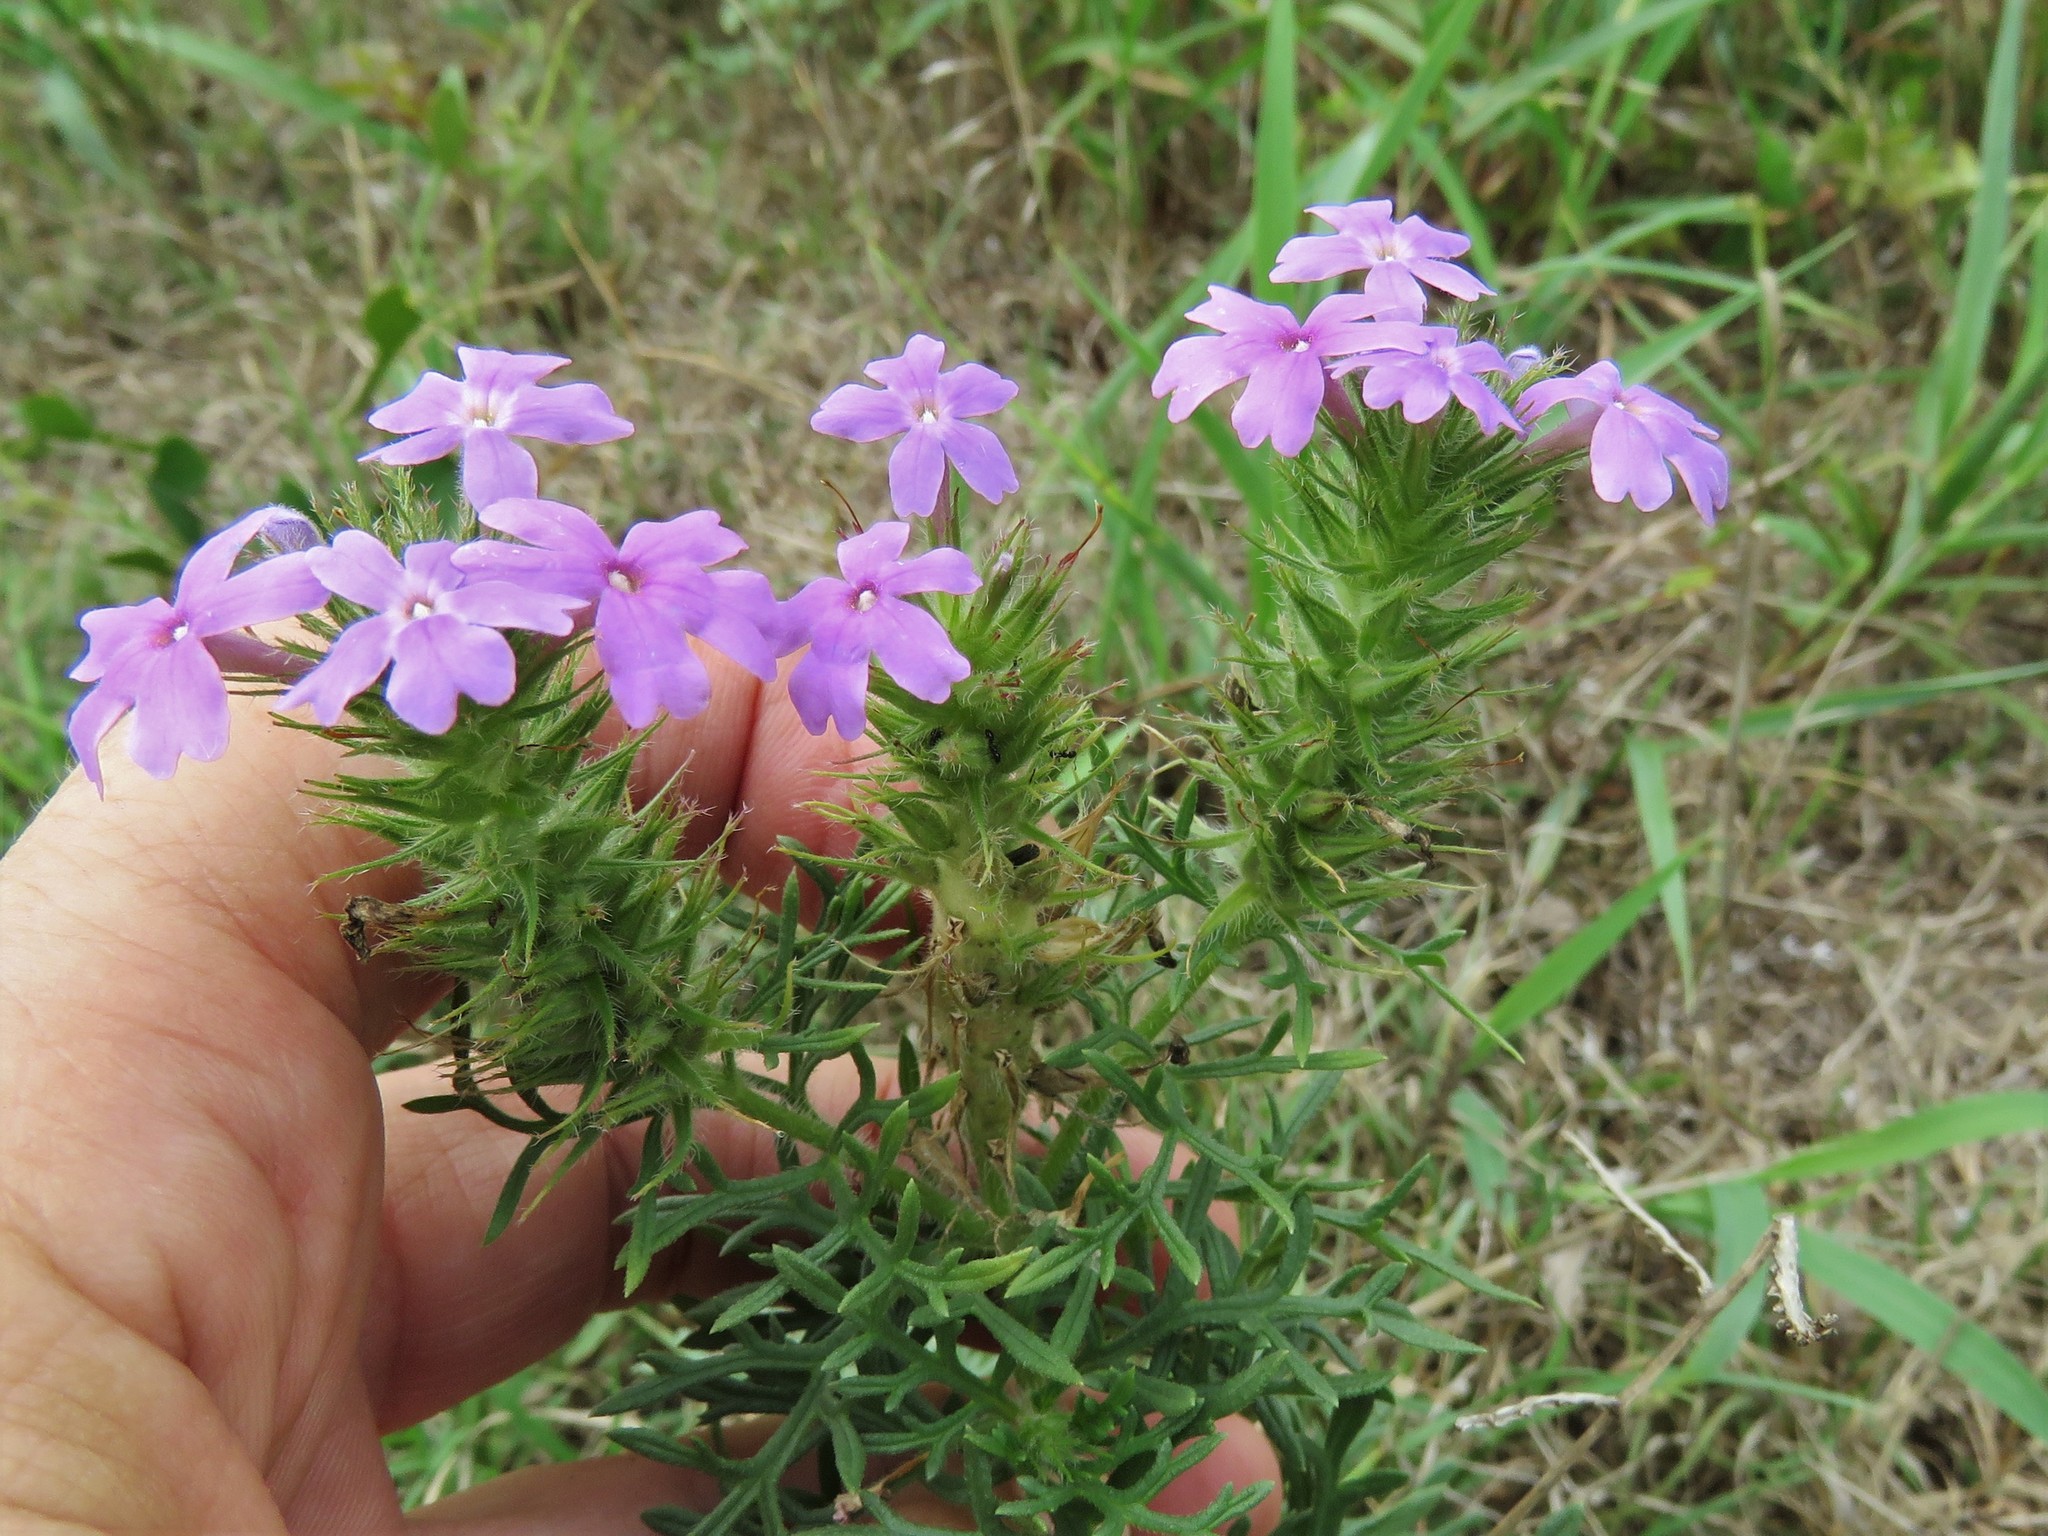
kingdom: Plantae
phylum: Tracheophyta
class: Magnoliopsida
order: Lamiales
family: Verbenaceae
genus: Verbena
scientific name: Verbena bipinnatifida
